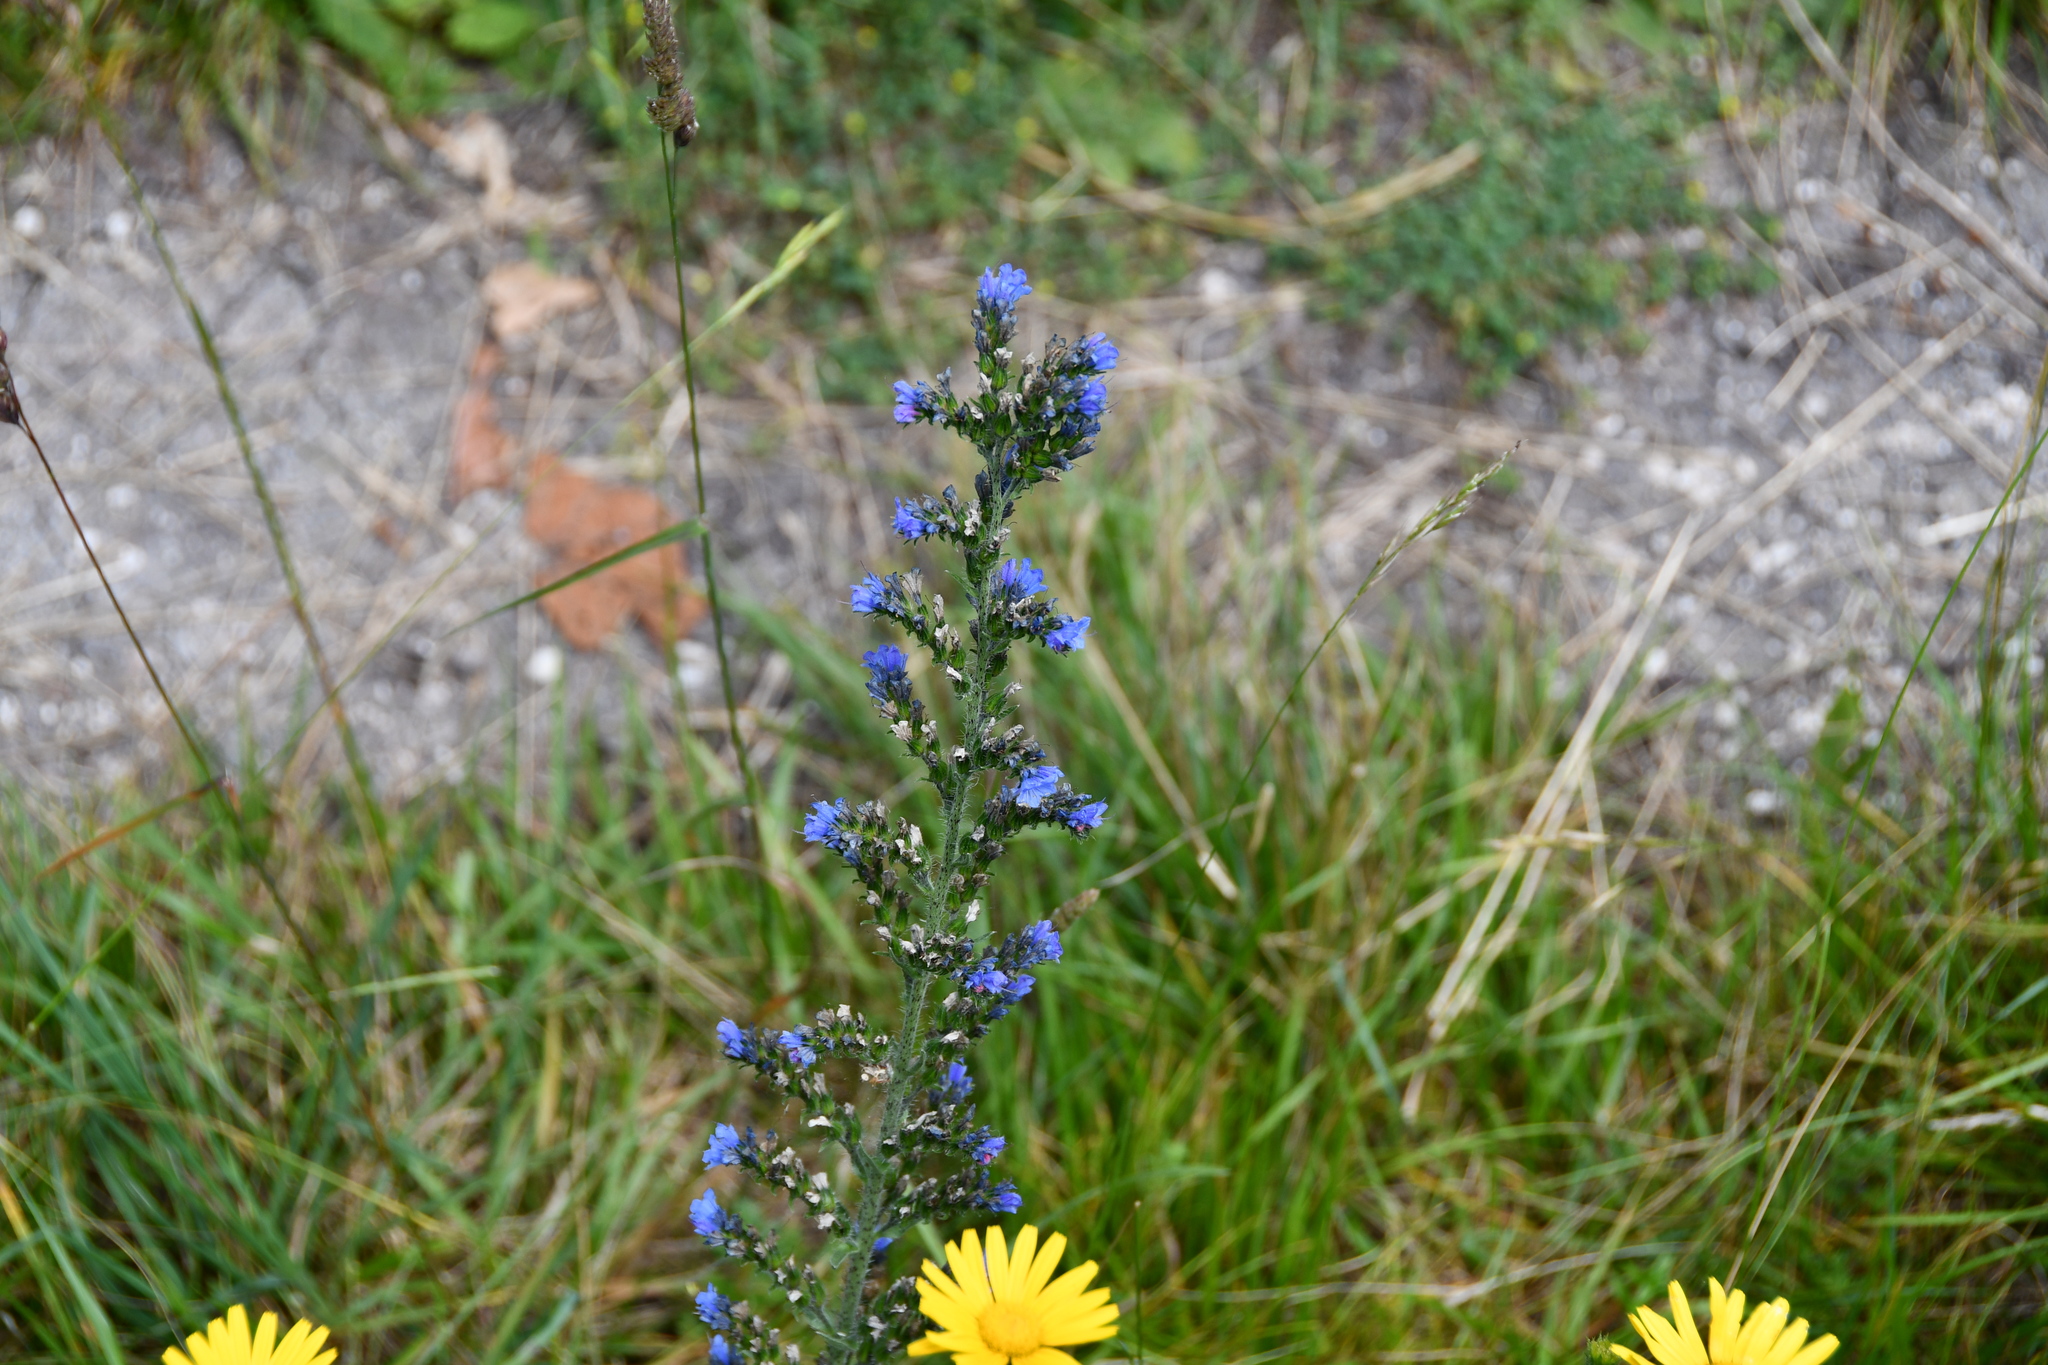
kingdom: Plantae
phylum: Tracheophyta
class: Magnoliopsida
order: Boraginales
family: Boraginaceae
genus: Echium
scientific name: Echium vulgare
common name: Common viper's bugloss
